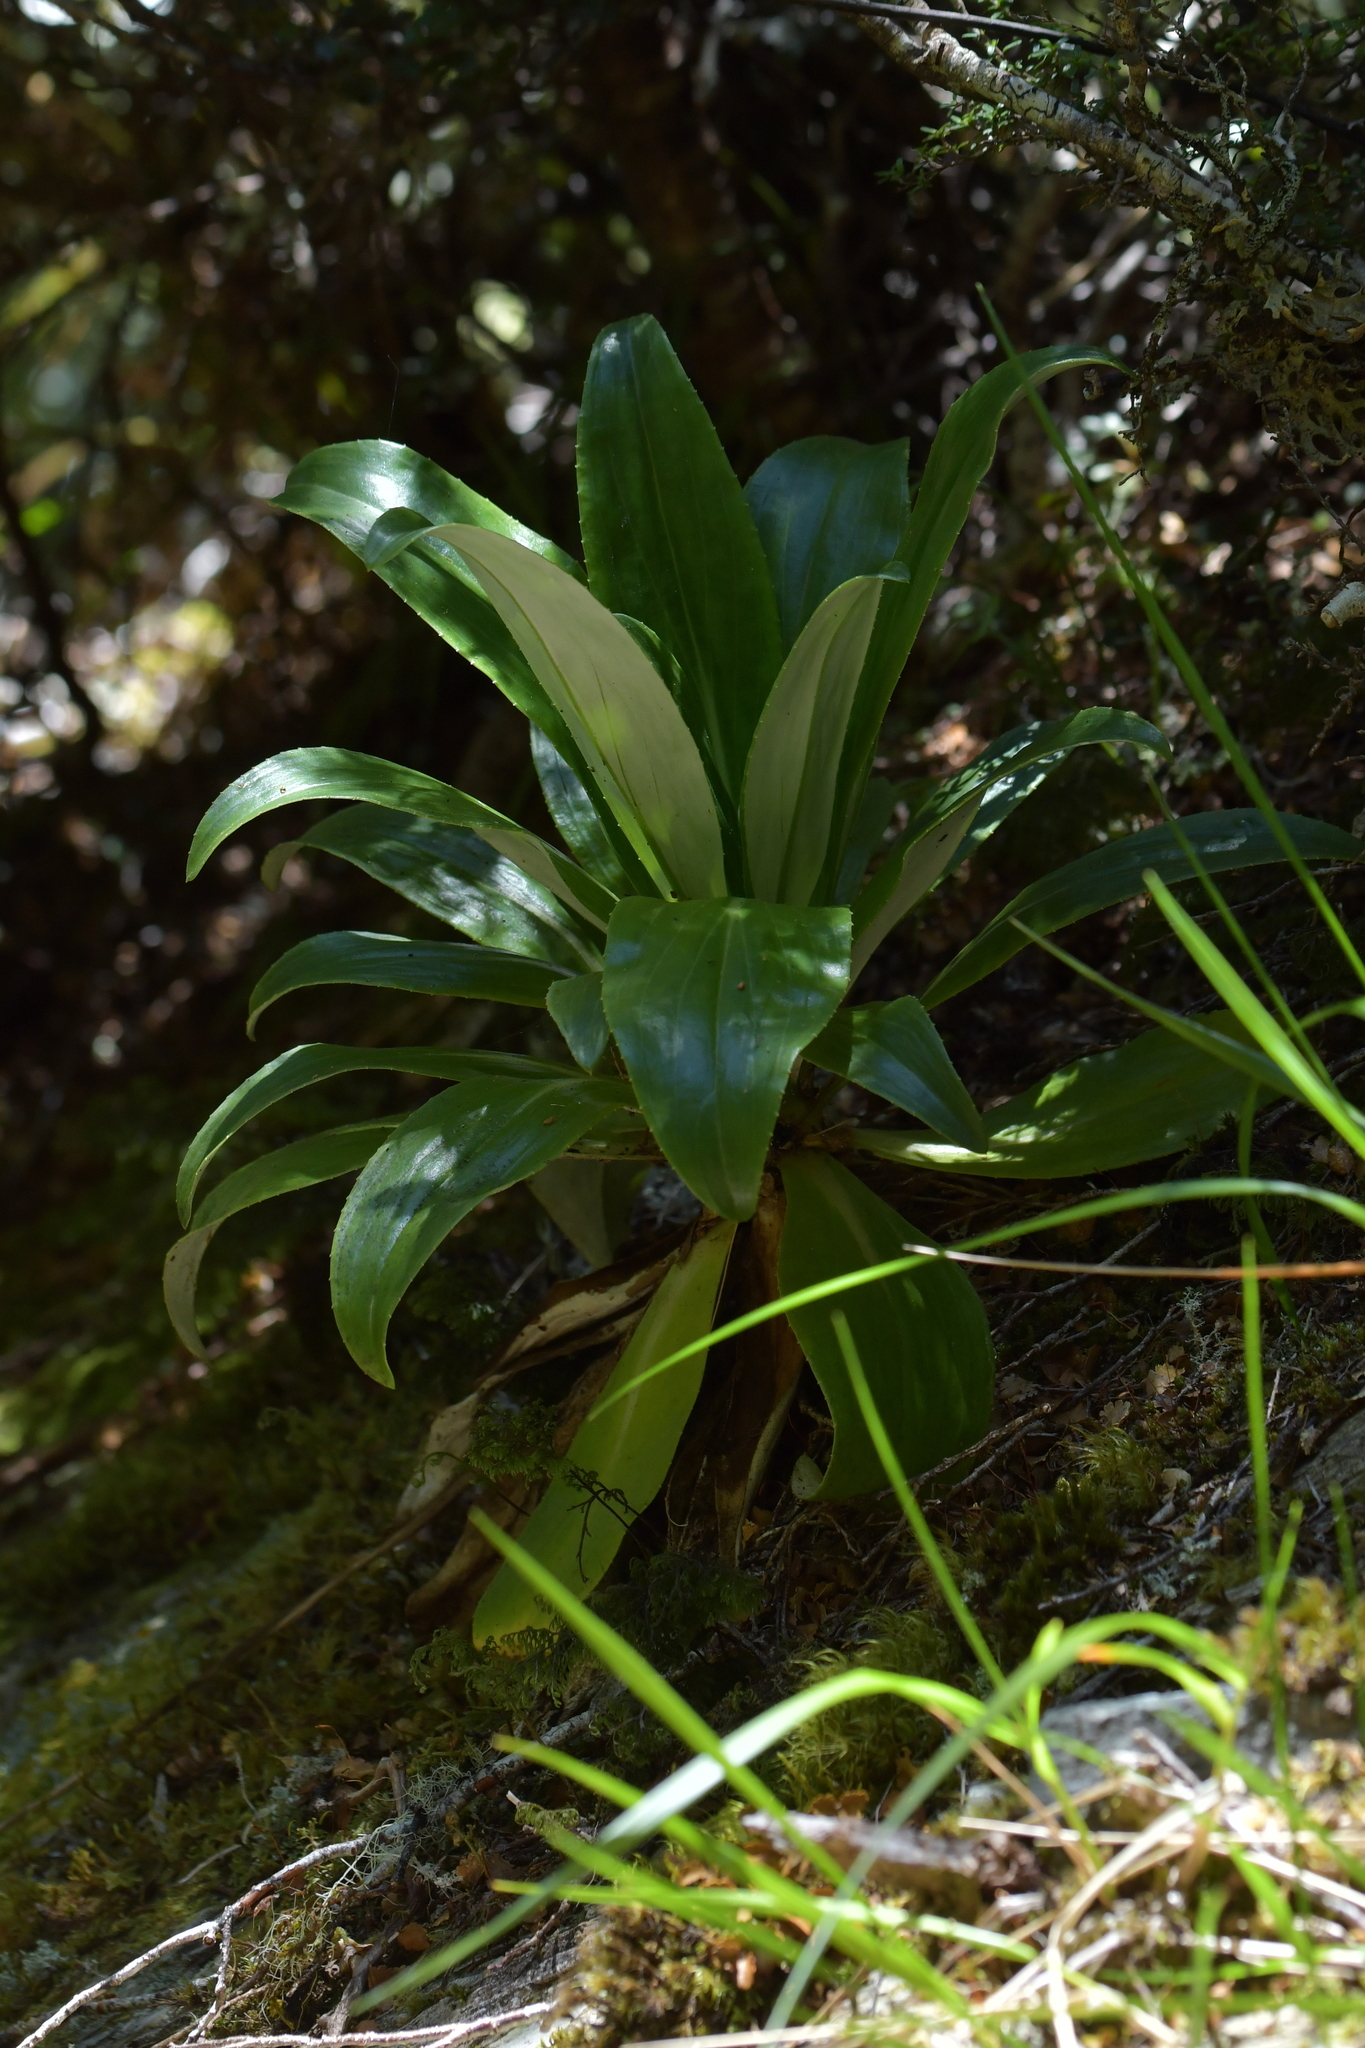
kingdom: Plantae
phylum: Tracheophyta
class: Magnoliopsida
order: Asterales
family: Asteraceae
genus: Celmisia
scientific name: Celmisia holosericea
